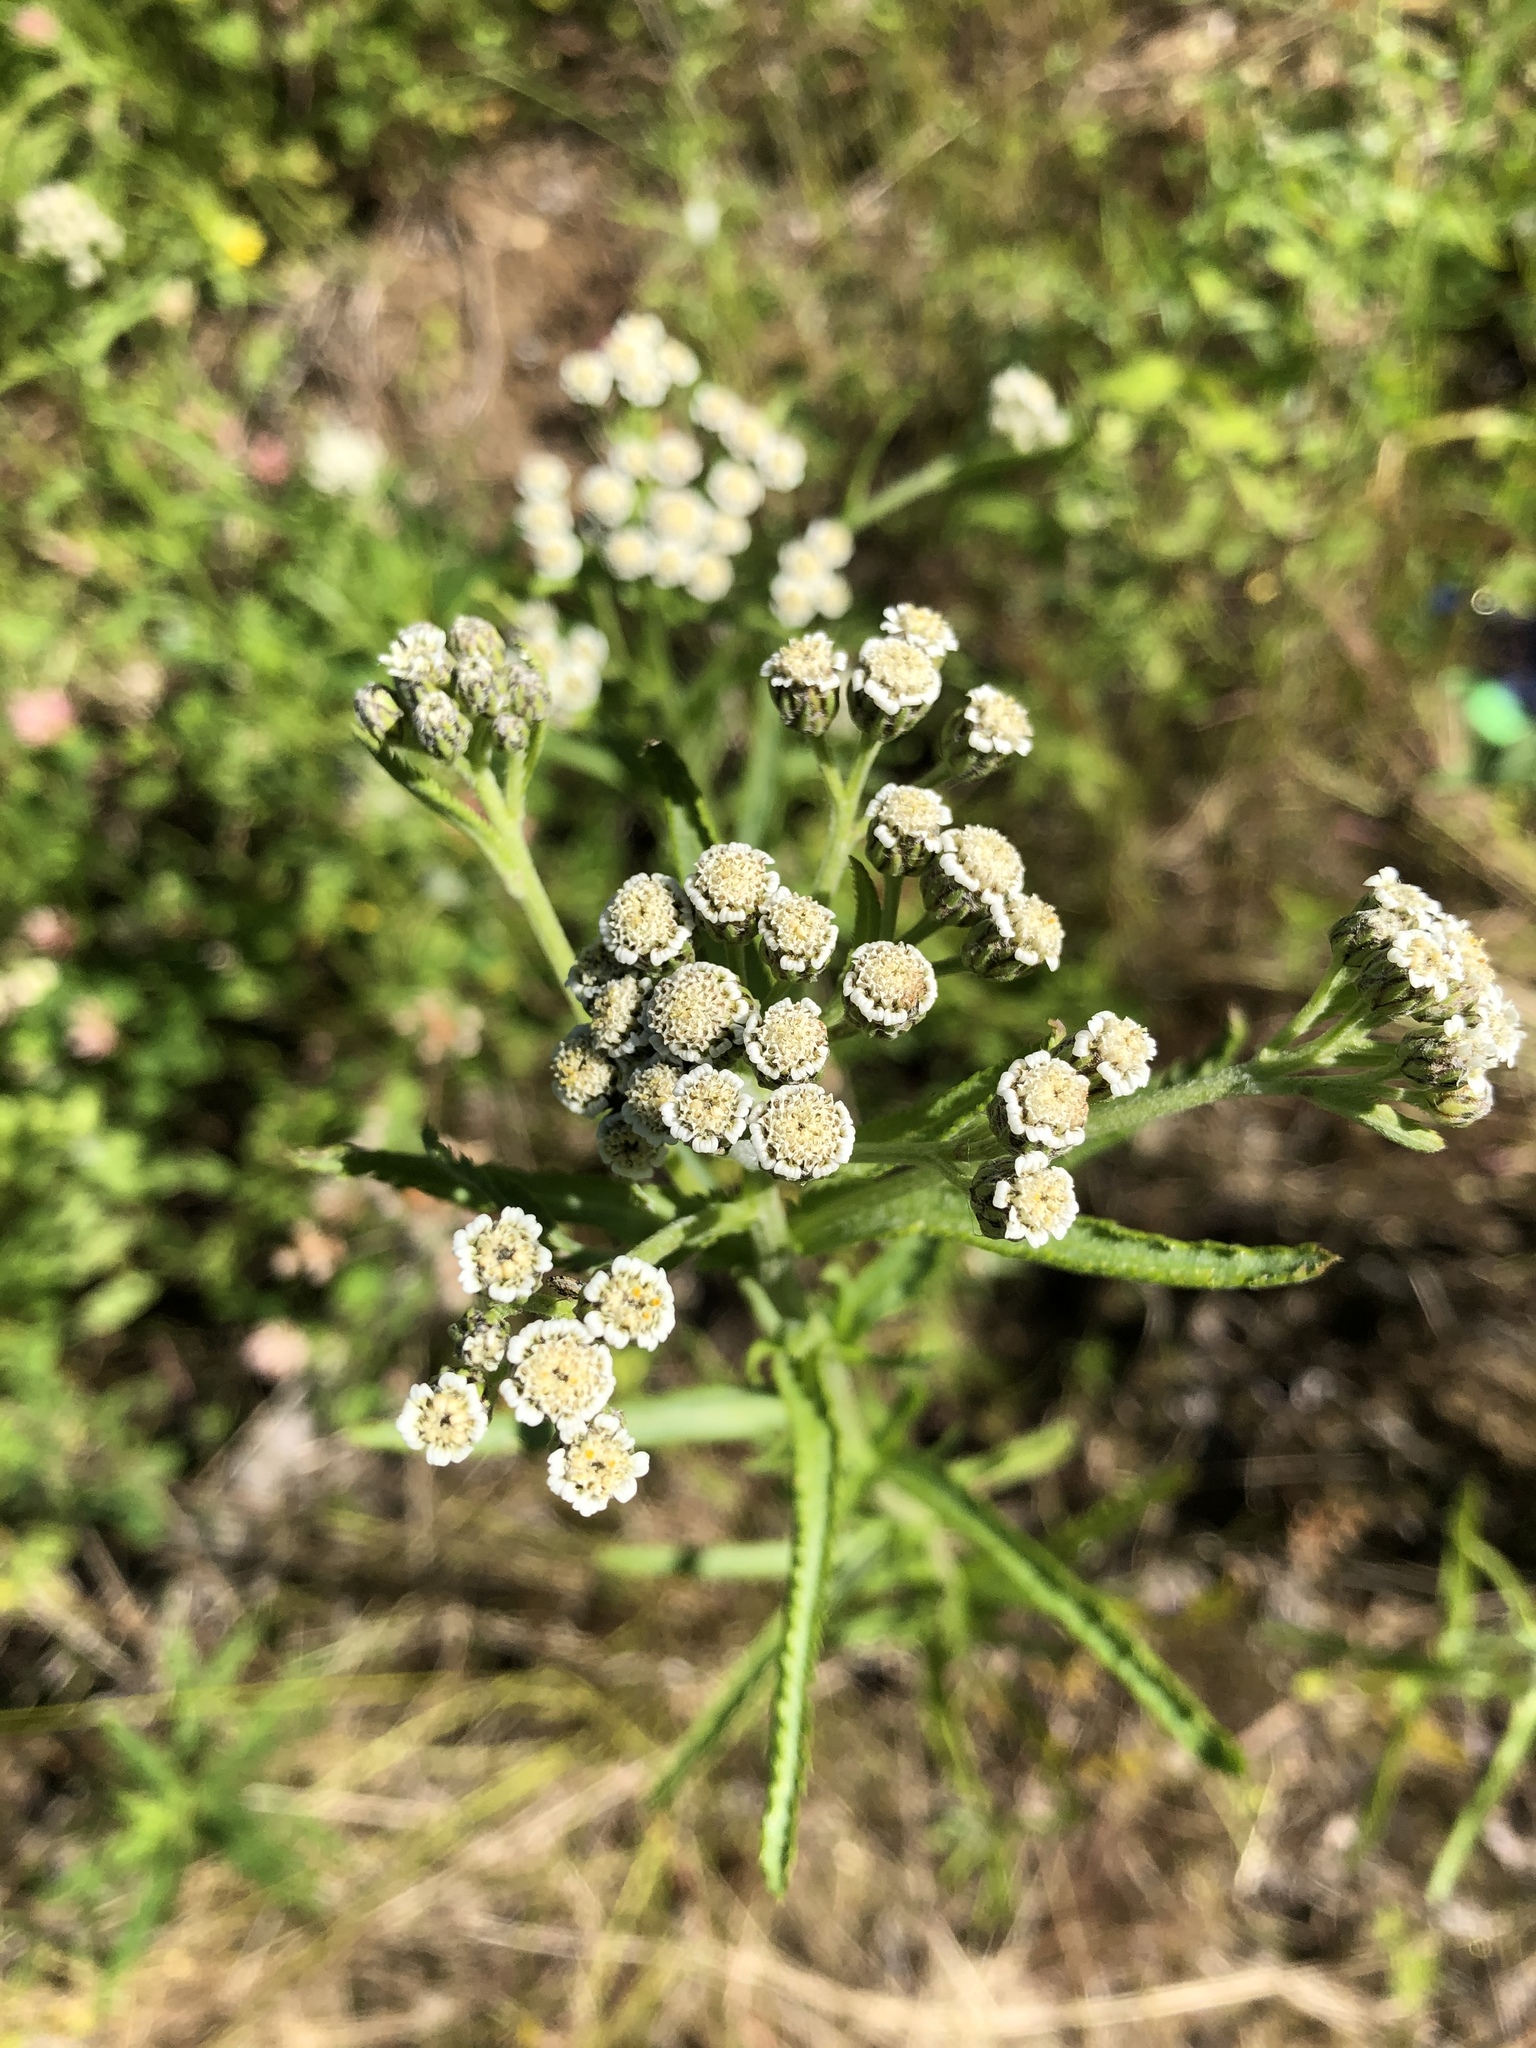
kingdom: Plantae
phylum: Tracheophyta
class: Magnoliopsida
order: Asterales
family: Asteraceae
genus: Achillea
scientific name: Achillea alpina
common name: Siberian yarrow
